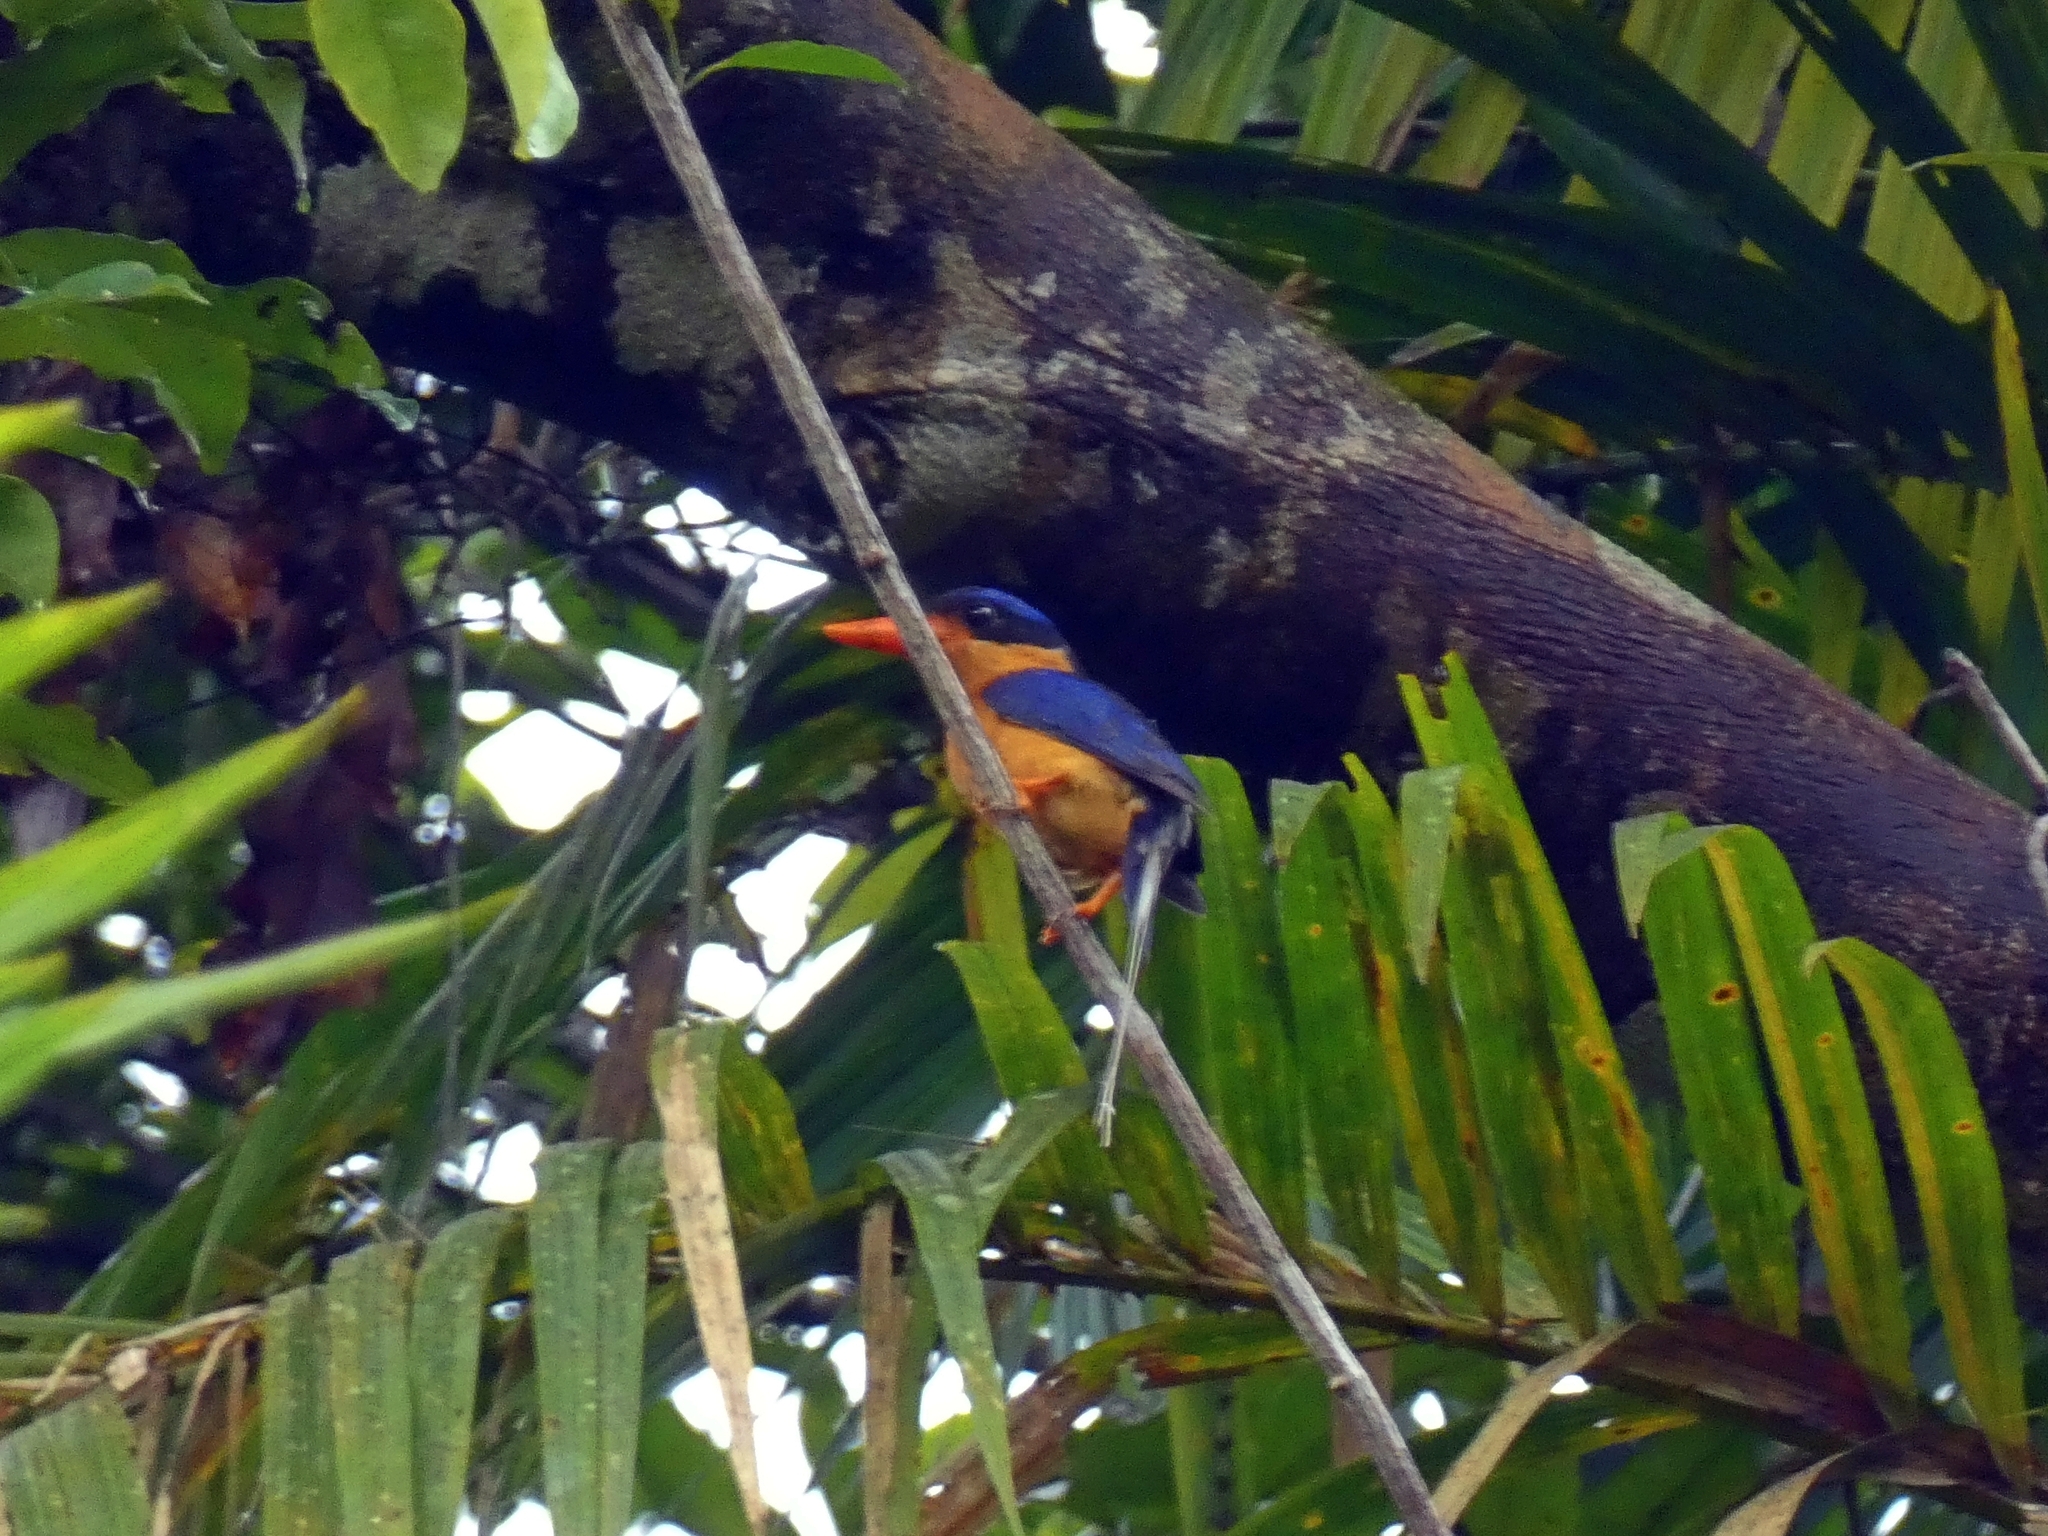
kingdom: Animalia
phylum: Chordata
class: Aves
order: Coraciiformes
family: Alcedinidae
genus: Tanysiptera
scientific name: Tanysiptera sylvia
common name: Buff-breasted paradise kingfisher
